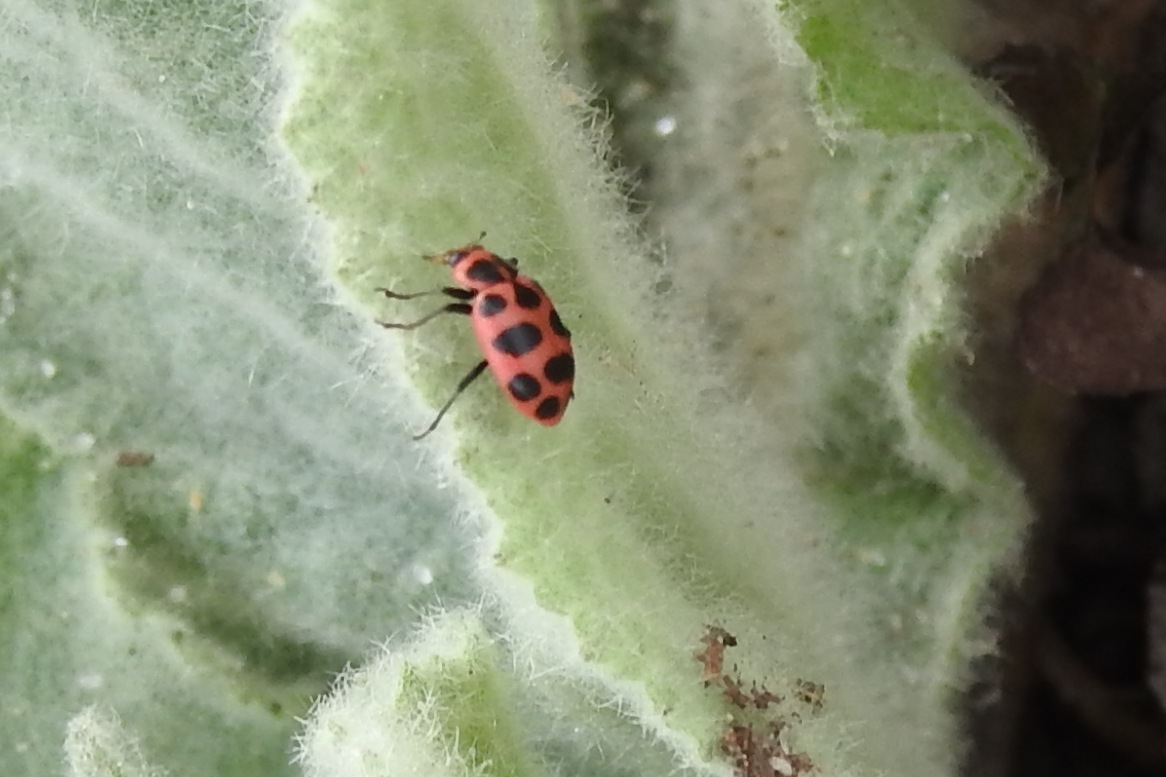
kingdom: Animalia
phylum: Arthropoda
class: Insecta
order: Coleoptera
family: Coccinellidae
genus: Coleomegilla
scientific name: Coleomegilla maculata
